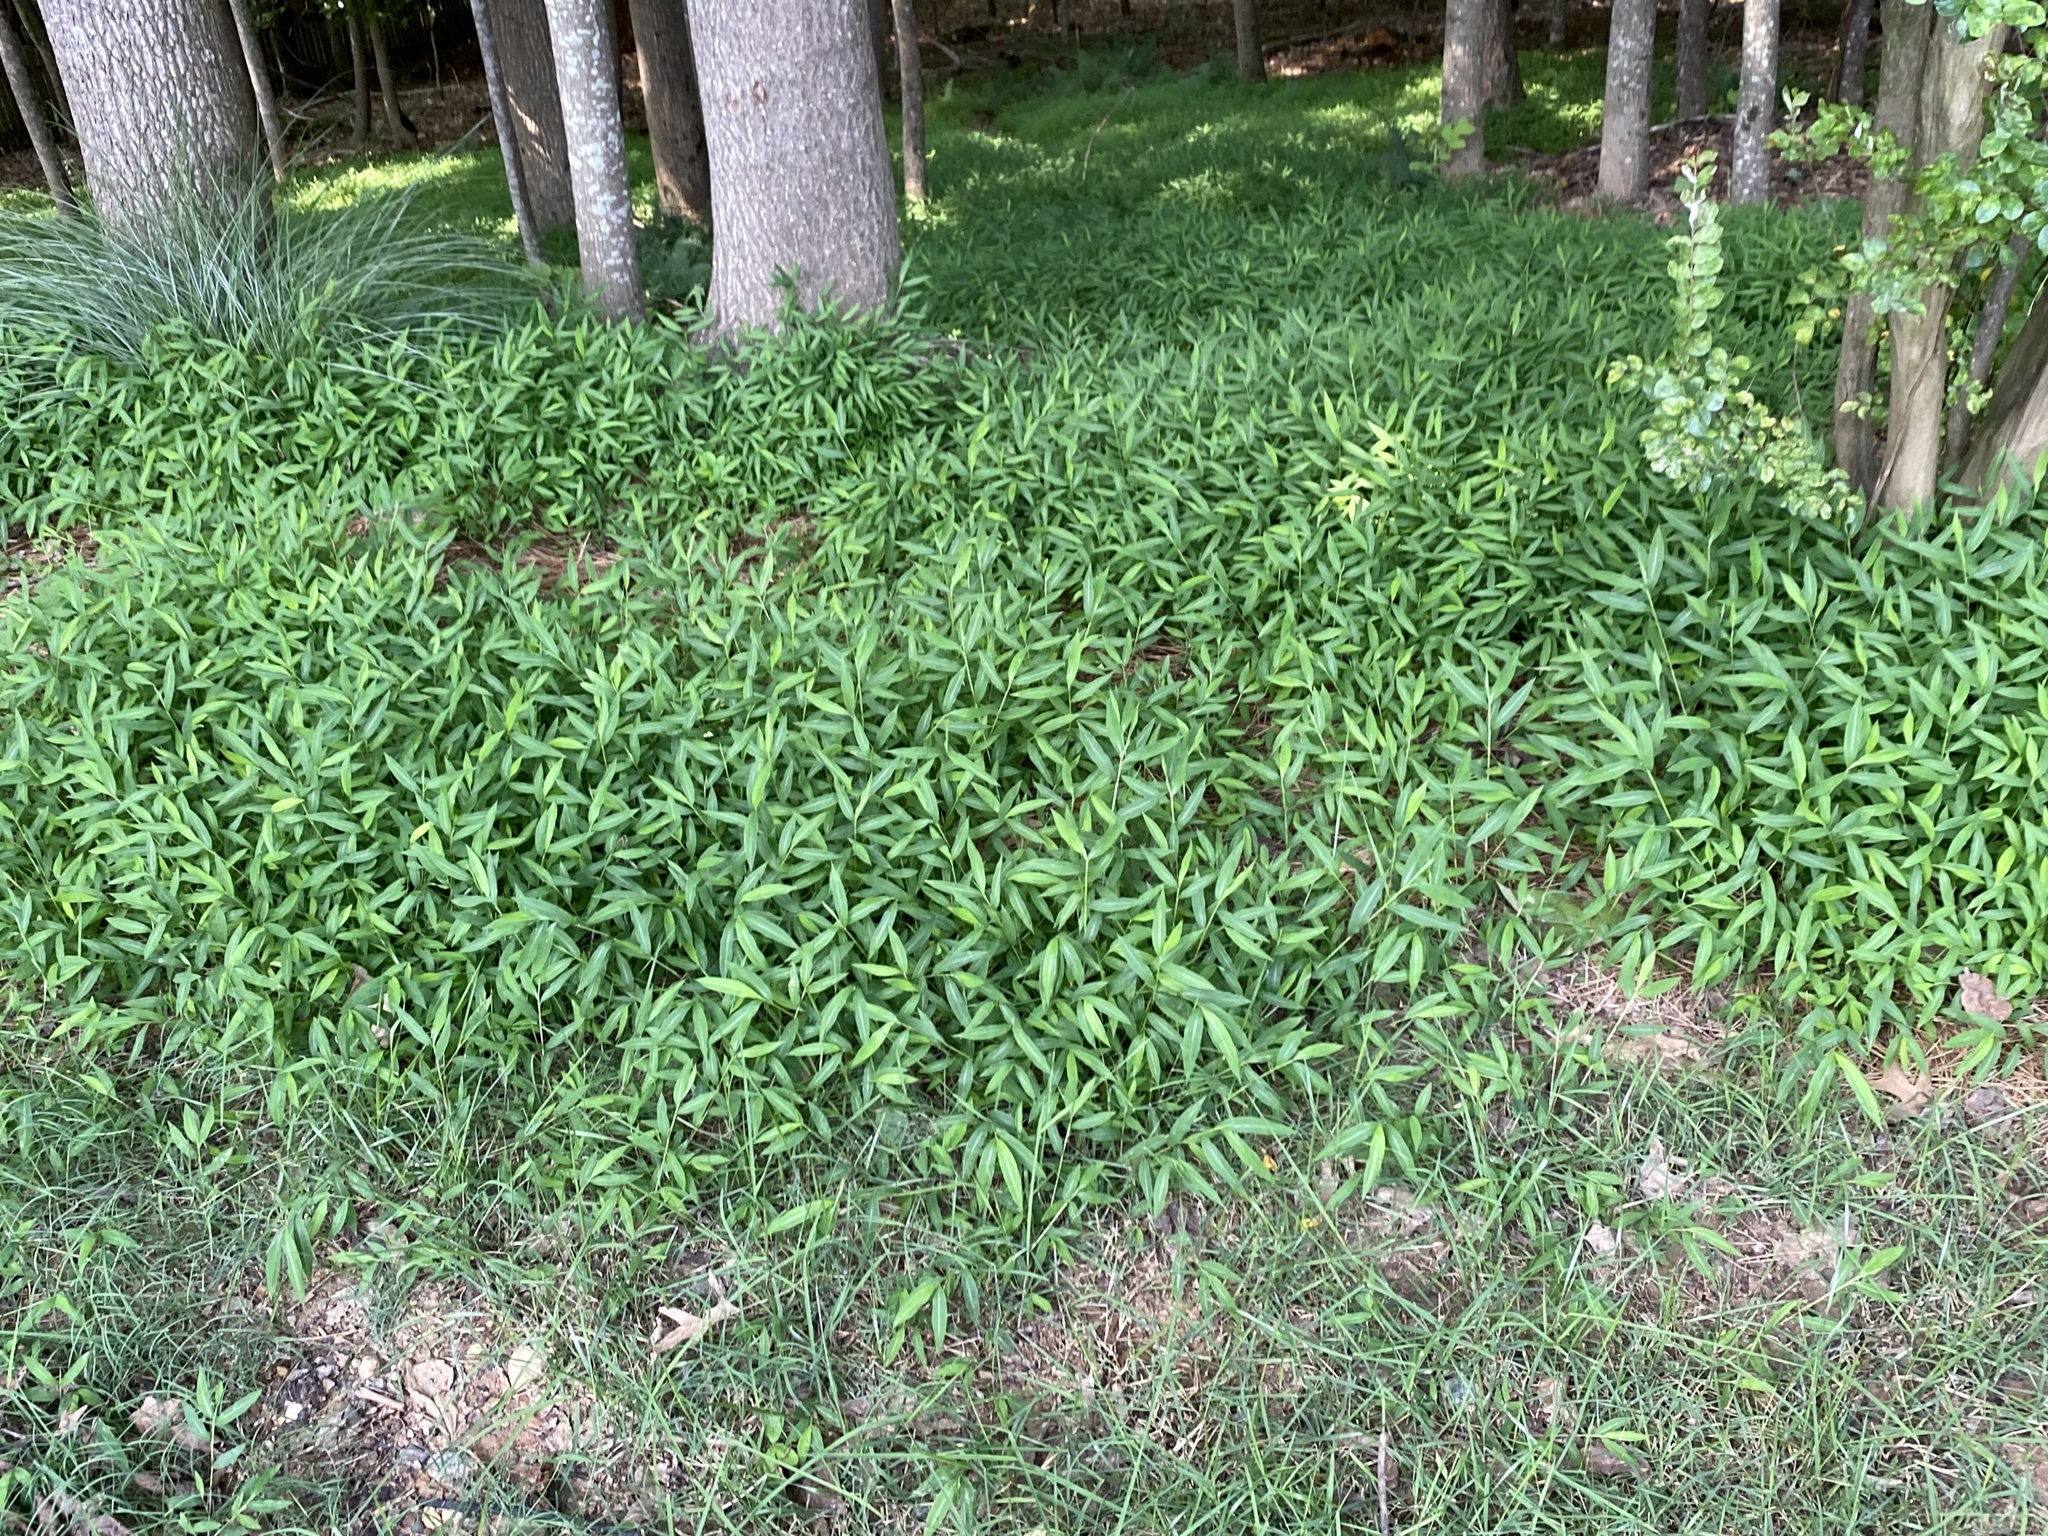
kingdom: Plantae
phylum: Tracheophyta
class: Liliopsida
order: Poales
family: Poaceae
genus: Microstegium
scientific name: Microstegium vimineum
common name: Japanese stiltgrass
